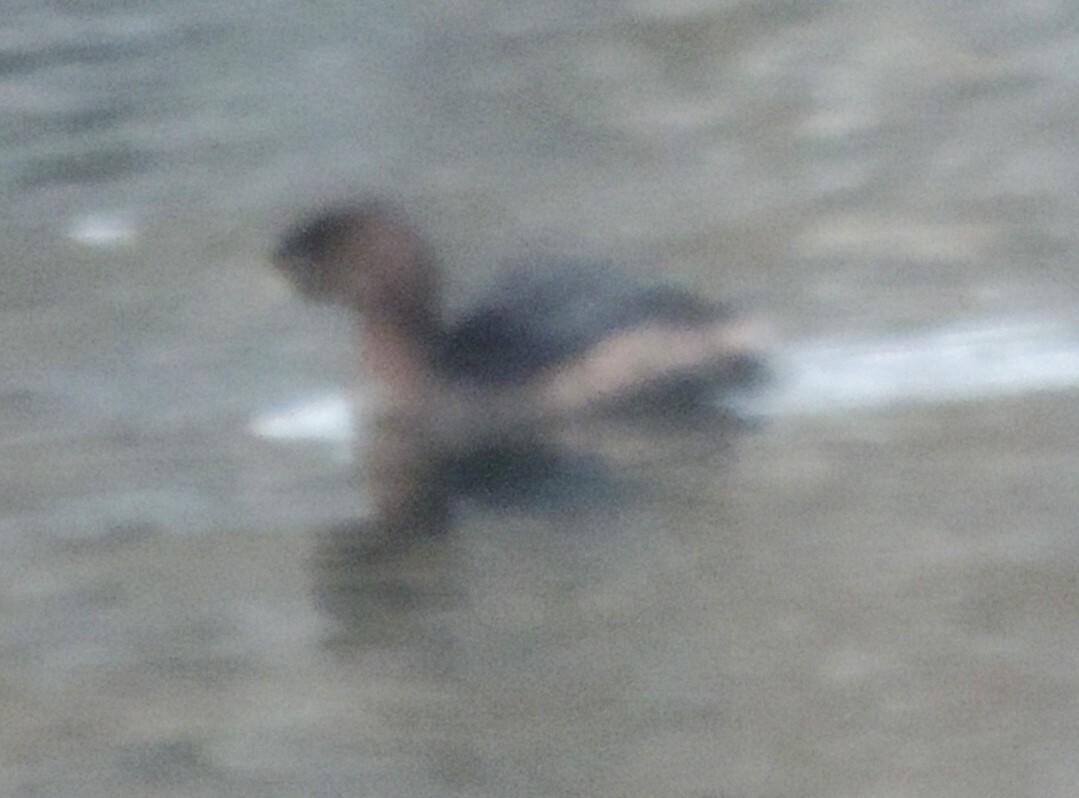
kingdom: Animalia
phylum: Chordata
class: Aves
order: Podicipediformes
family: Podicipedidae
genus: Podilymbus
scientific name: Podilymbus podiceps
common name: Pied-billed grebe
